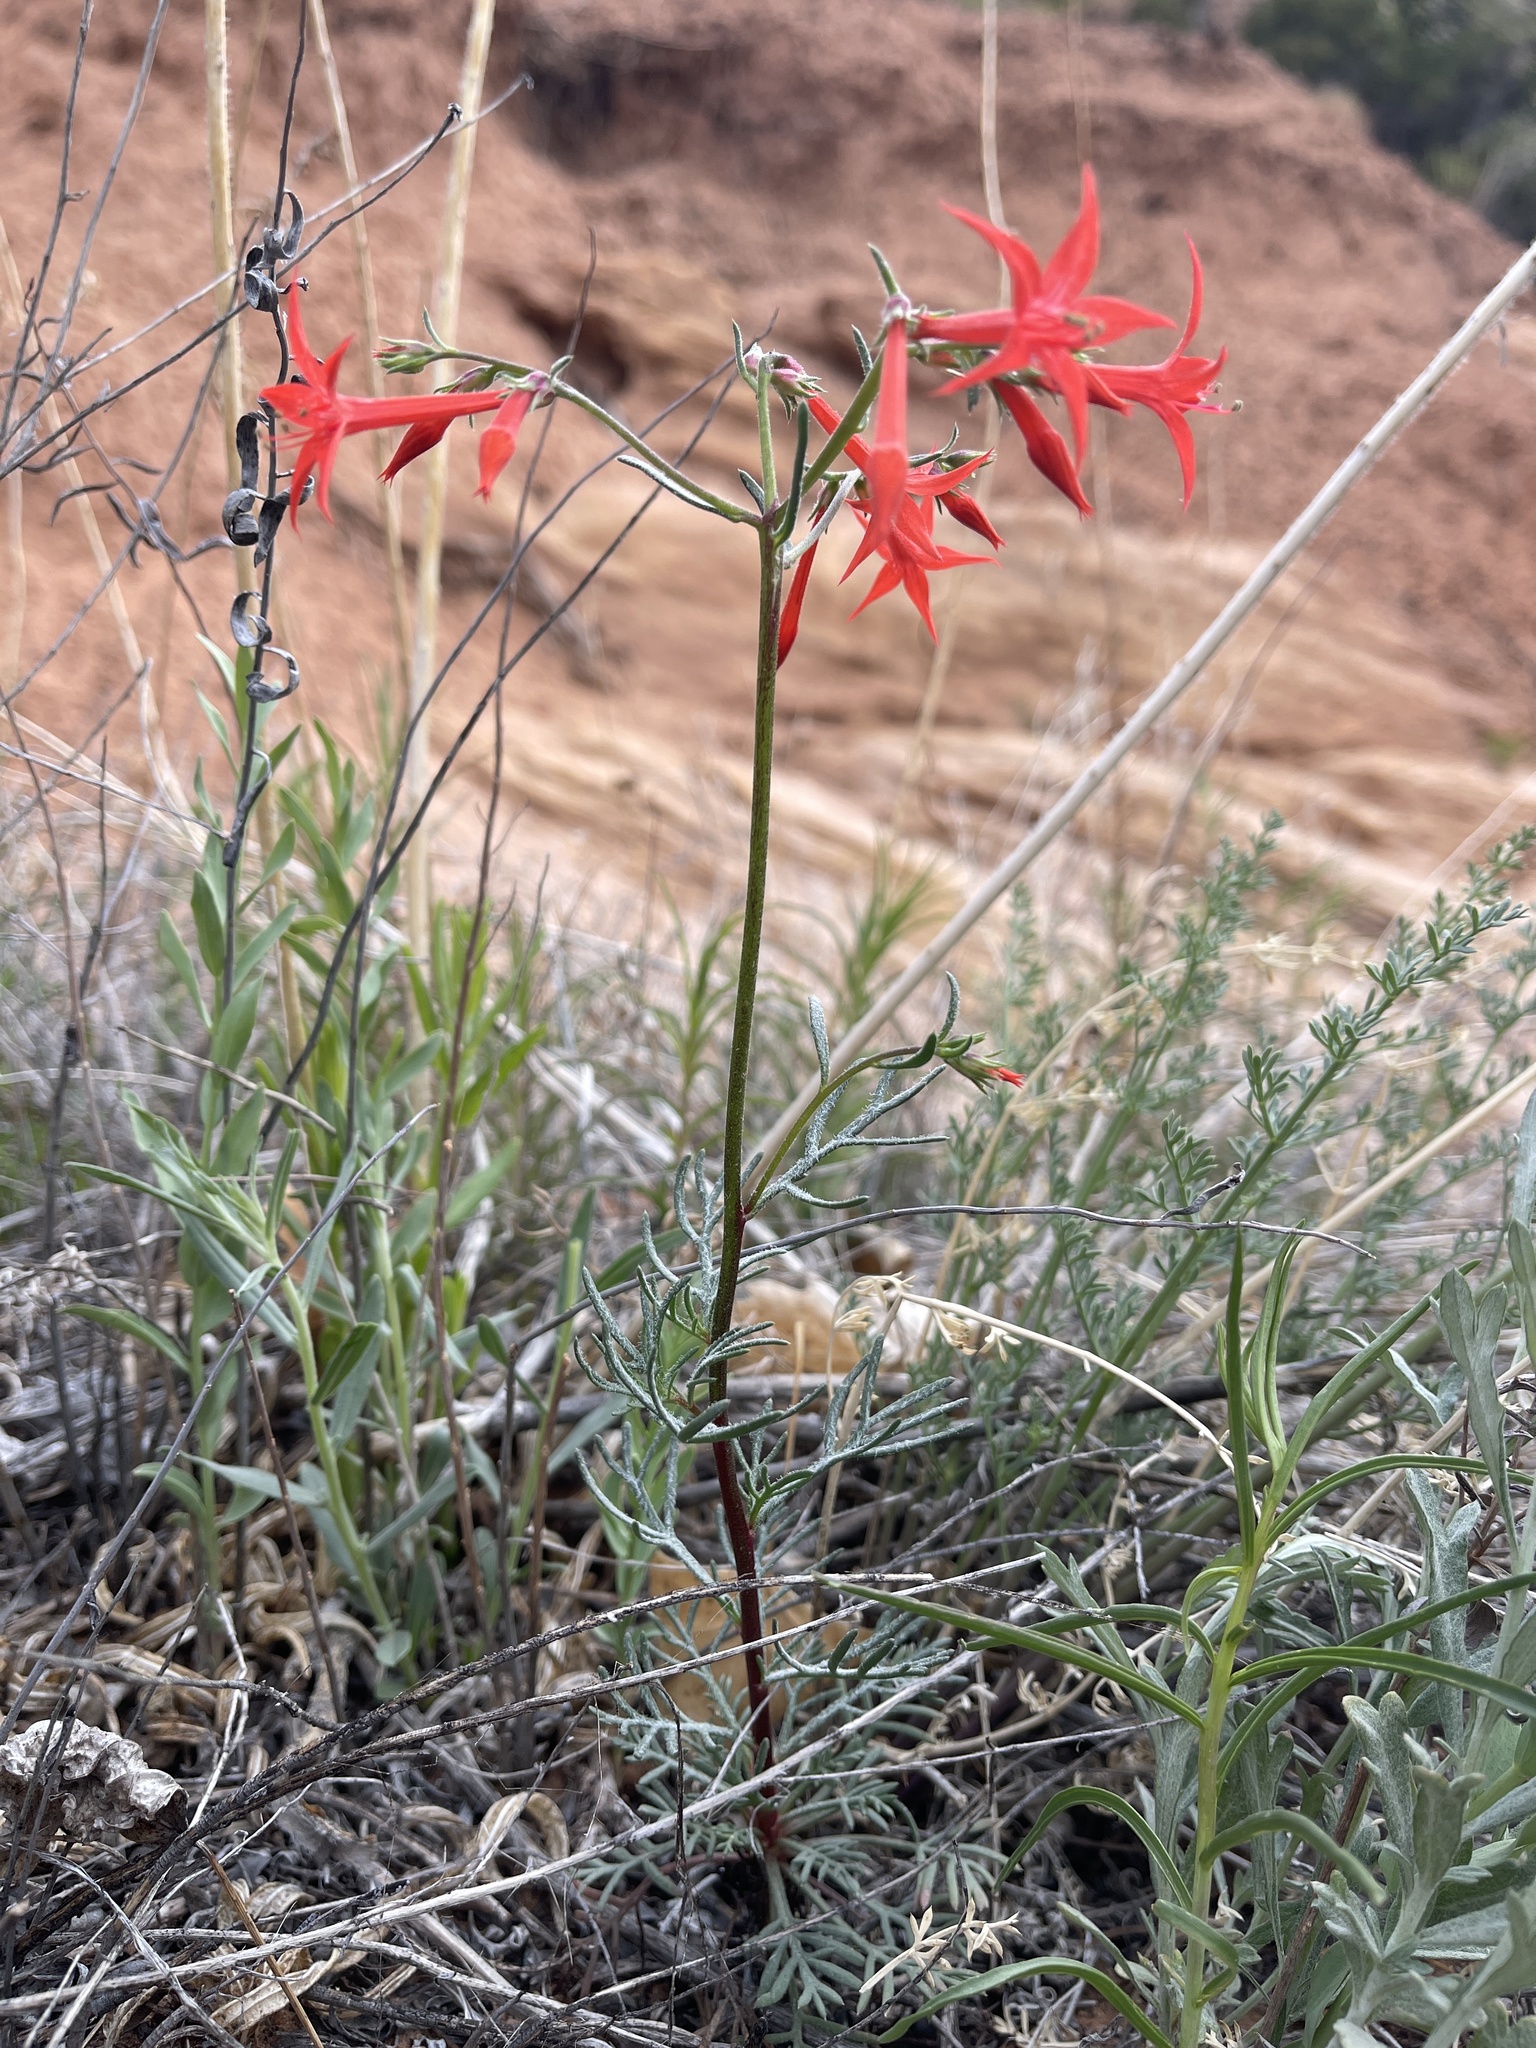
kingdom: Plantae
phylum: Tracheophyta
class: Magnoliopsida
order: Ericales
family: Polemoniaceae
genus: Ipomopsis
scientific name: Ipomopsis aggregata
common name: Scarlet gilia
